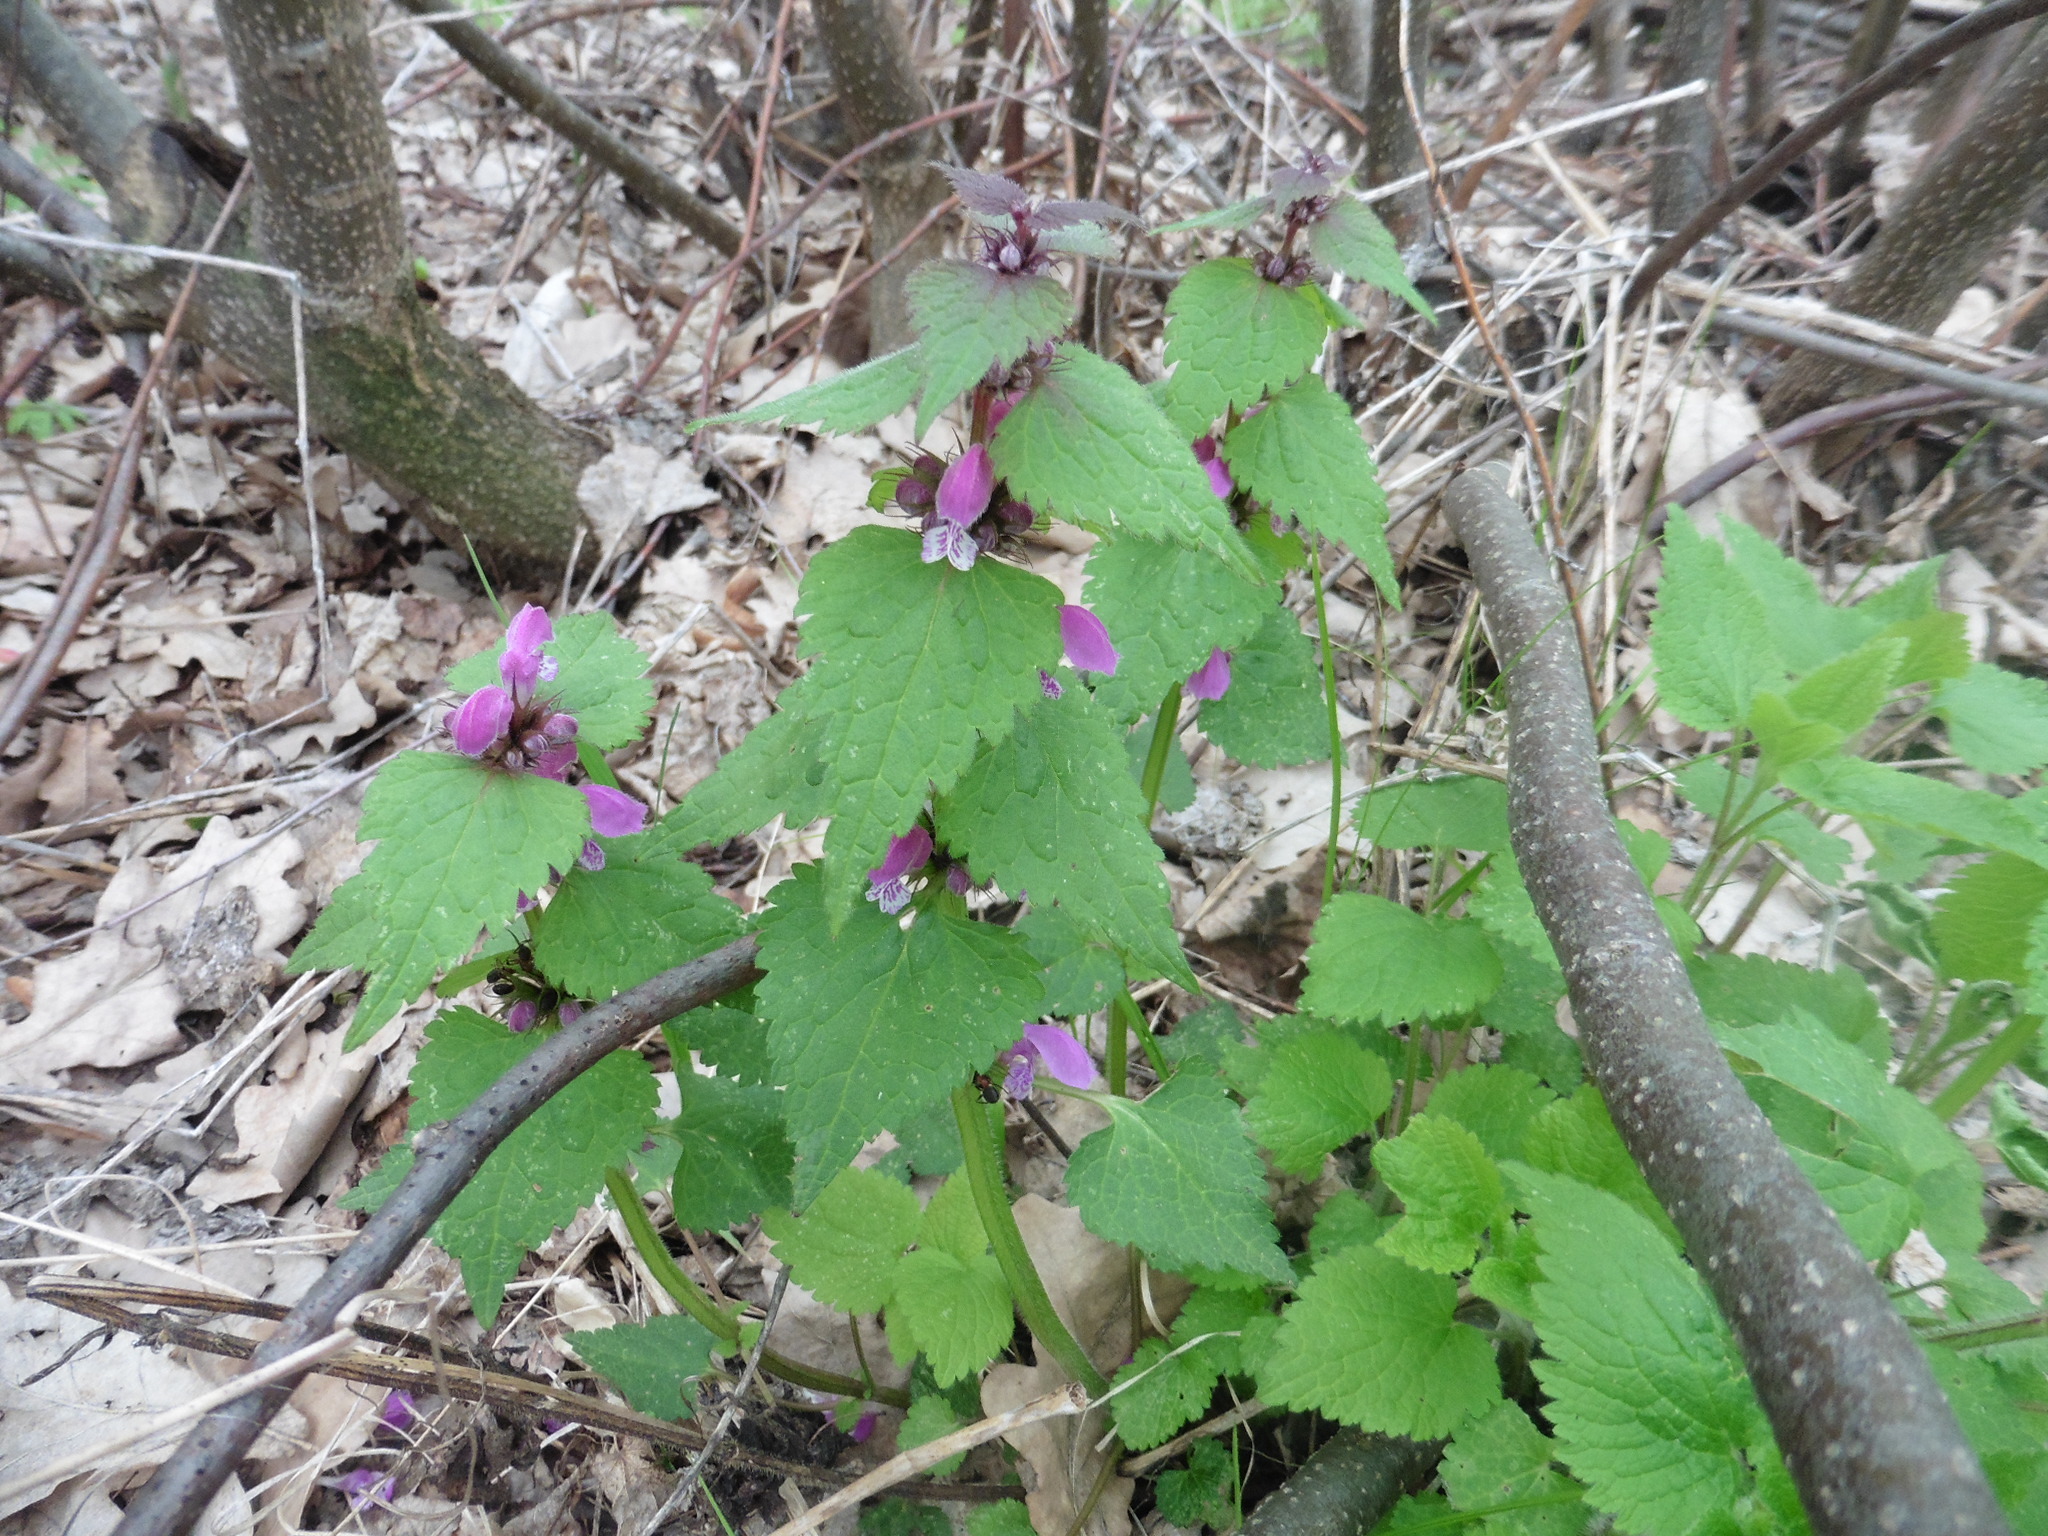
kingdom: Plantae
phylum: Tracheophyta
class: Magnoliopsida
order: Lamiales
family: Lamiaceae
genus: Lamium
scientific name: Lamium maculatum
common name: Spotted dead-nettle
